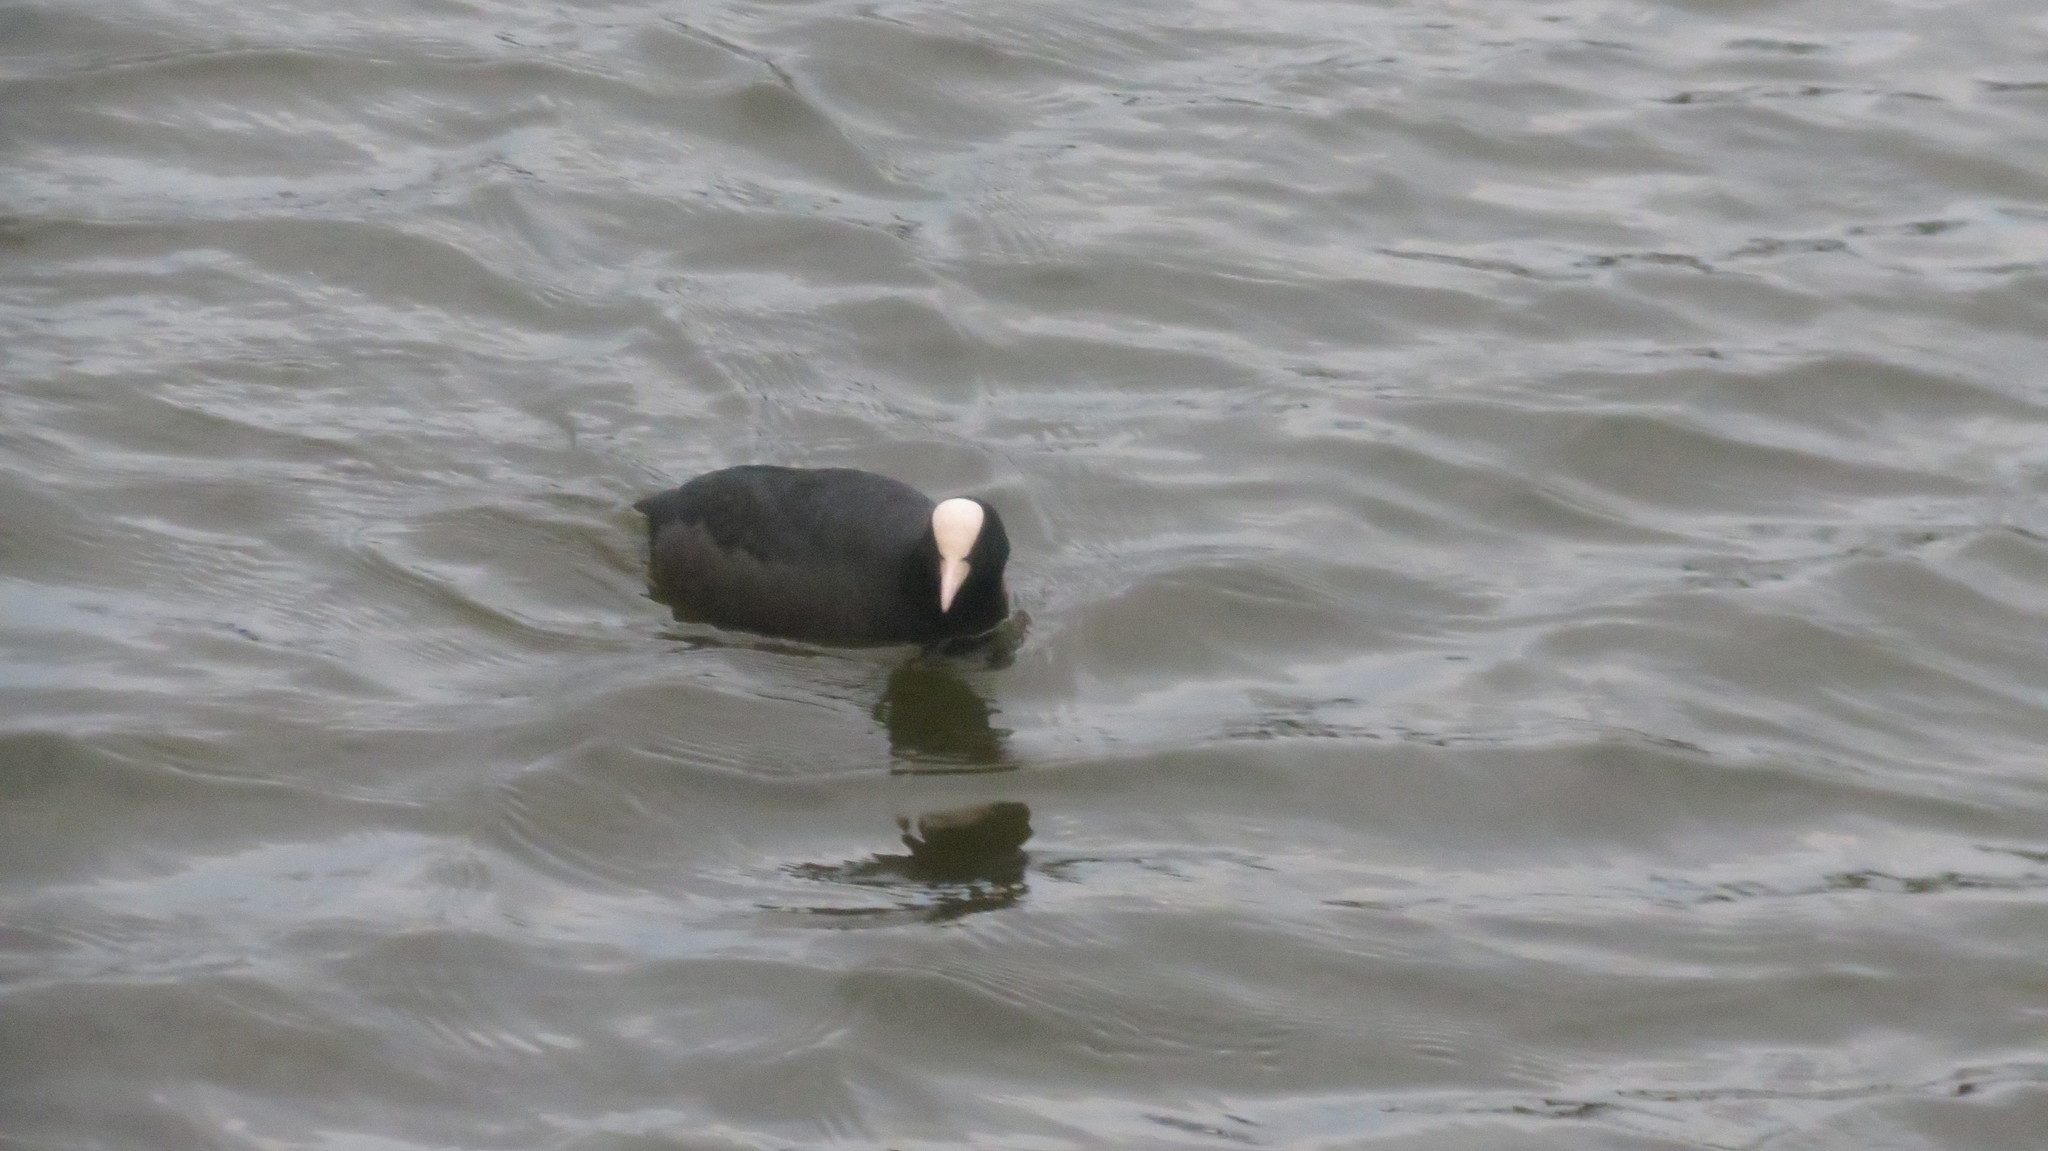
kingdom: Animalia
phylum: Chordata
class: Aves
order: Gruiformes
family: Rallidae
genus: Fulica
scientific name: Fulica atra
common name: Eurasian coot
